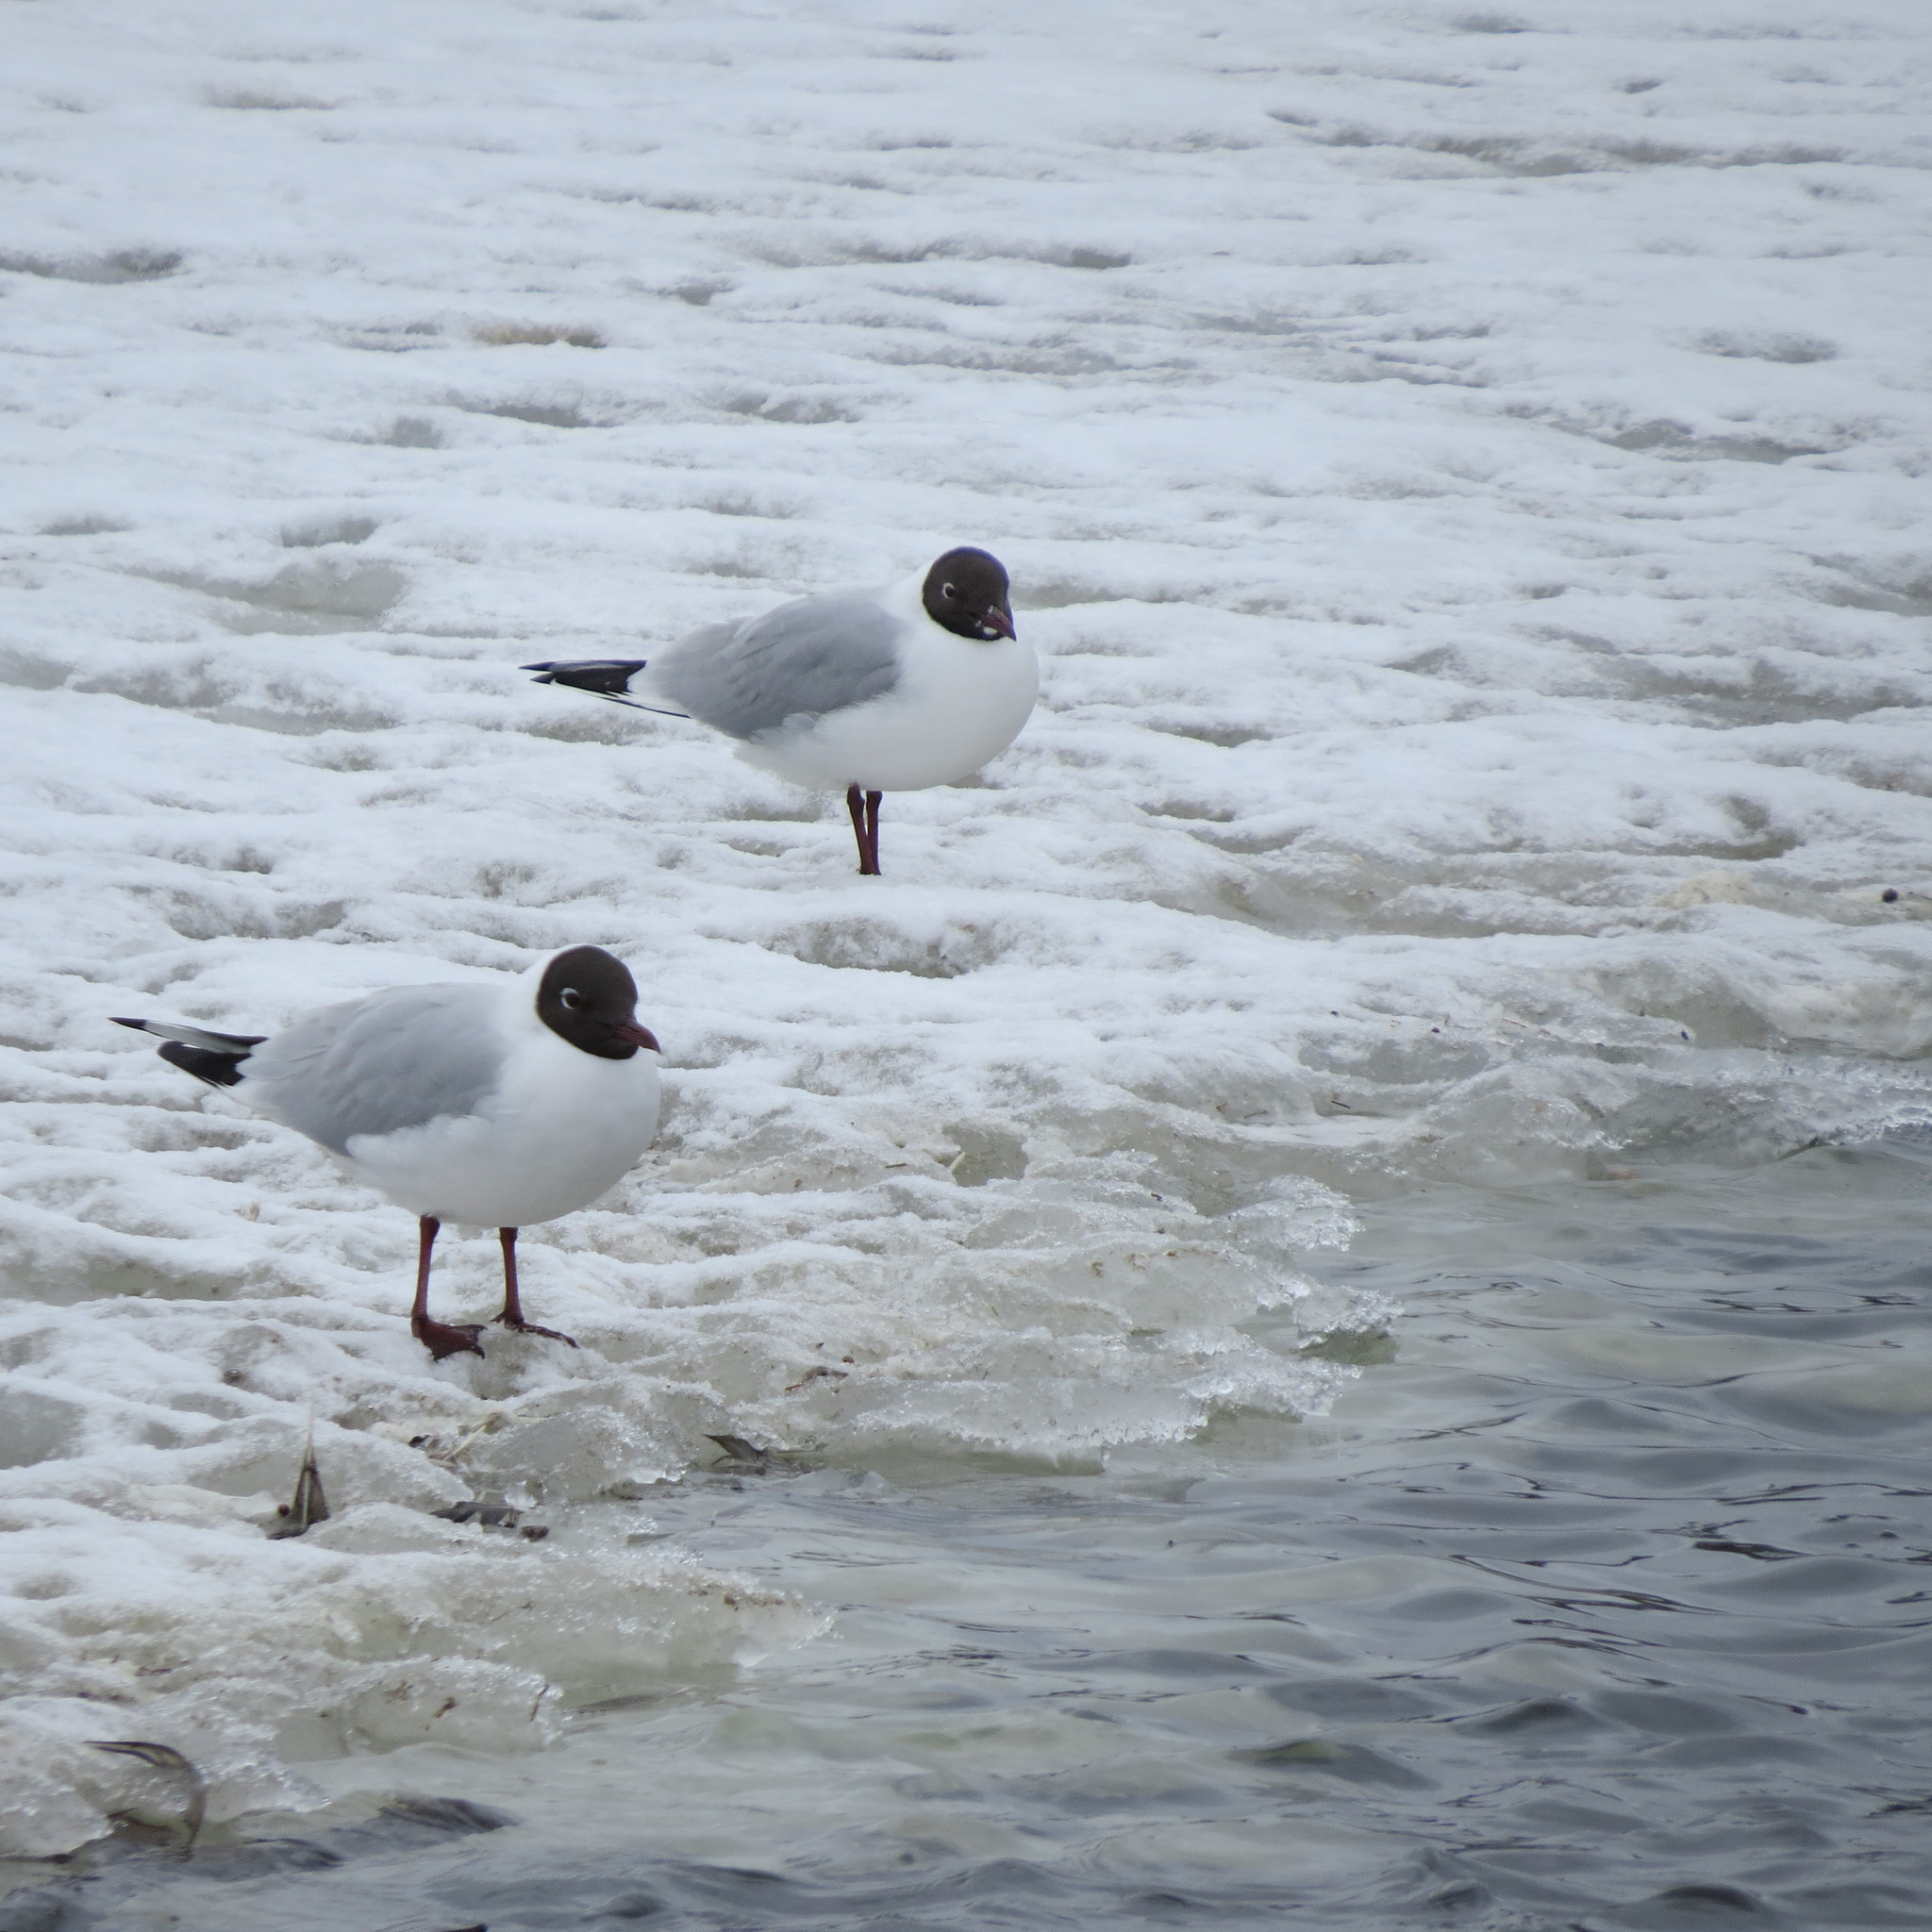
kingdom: Animalia
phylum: Chordata
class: Aves
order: Charadriiformes
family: Laridae
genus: Chroicocephalus
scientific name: Chroicocephalus ridibundus
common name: Black-headed gull
